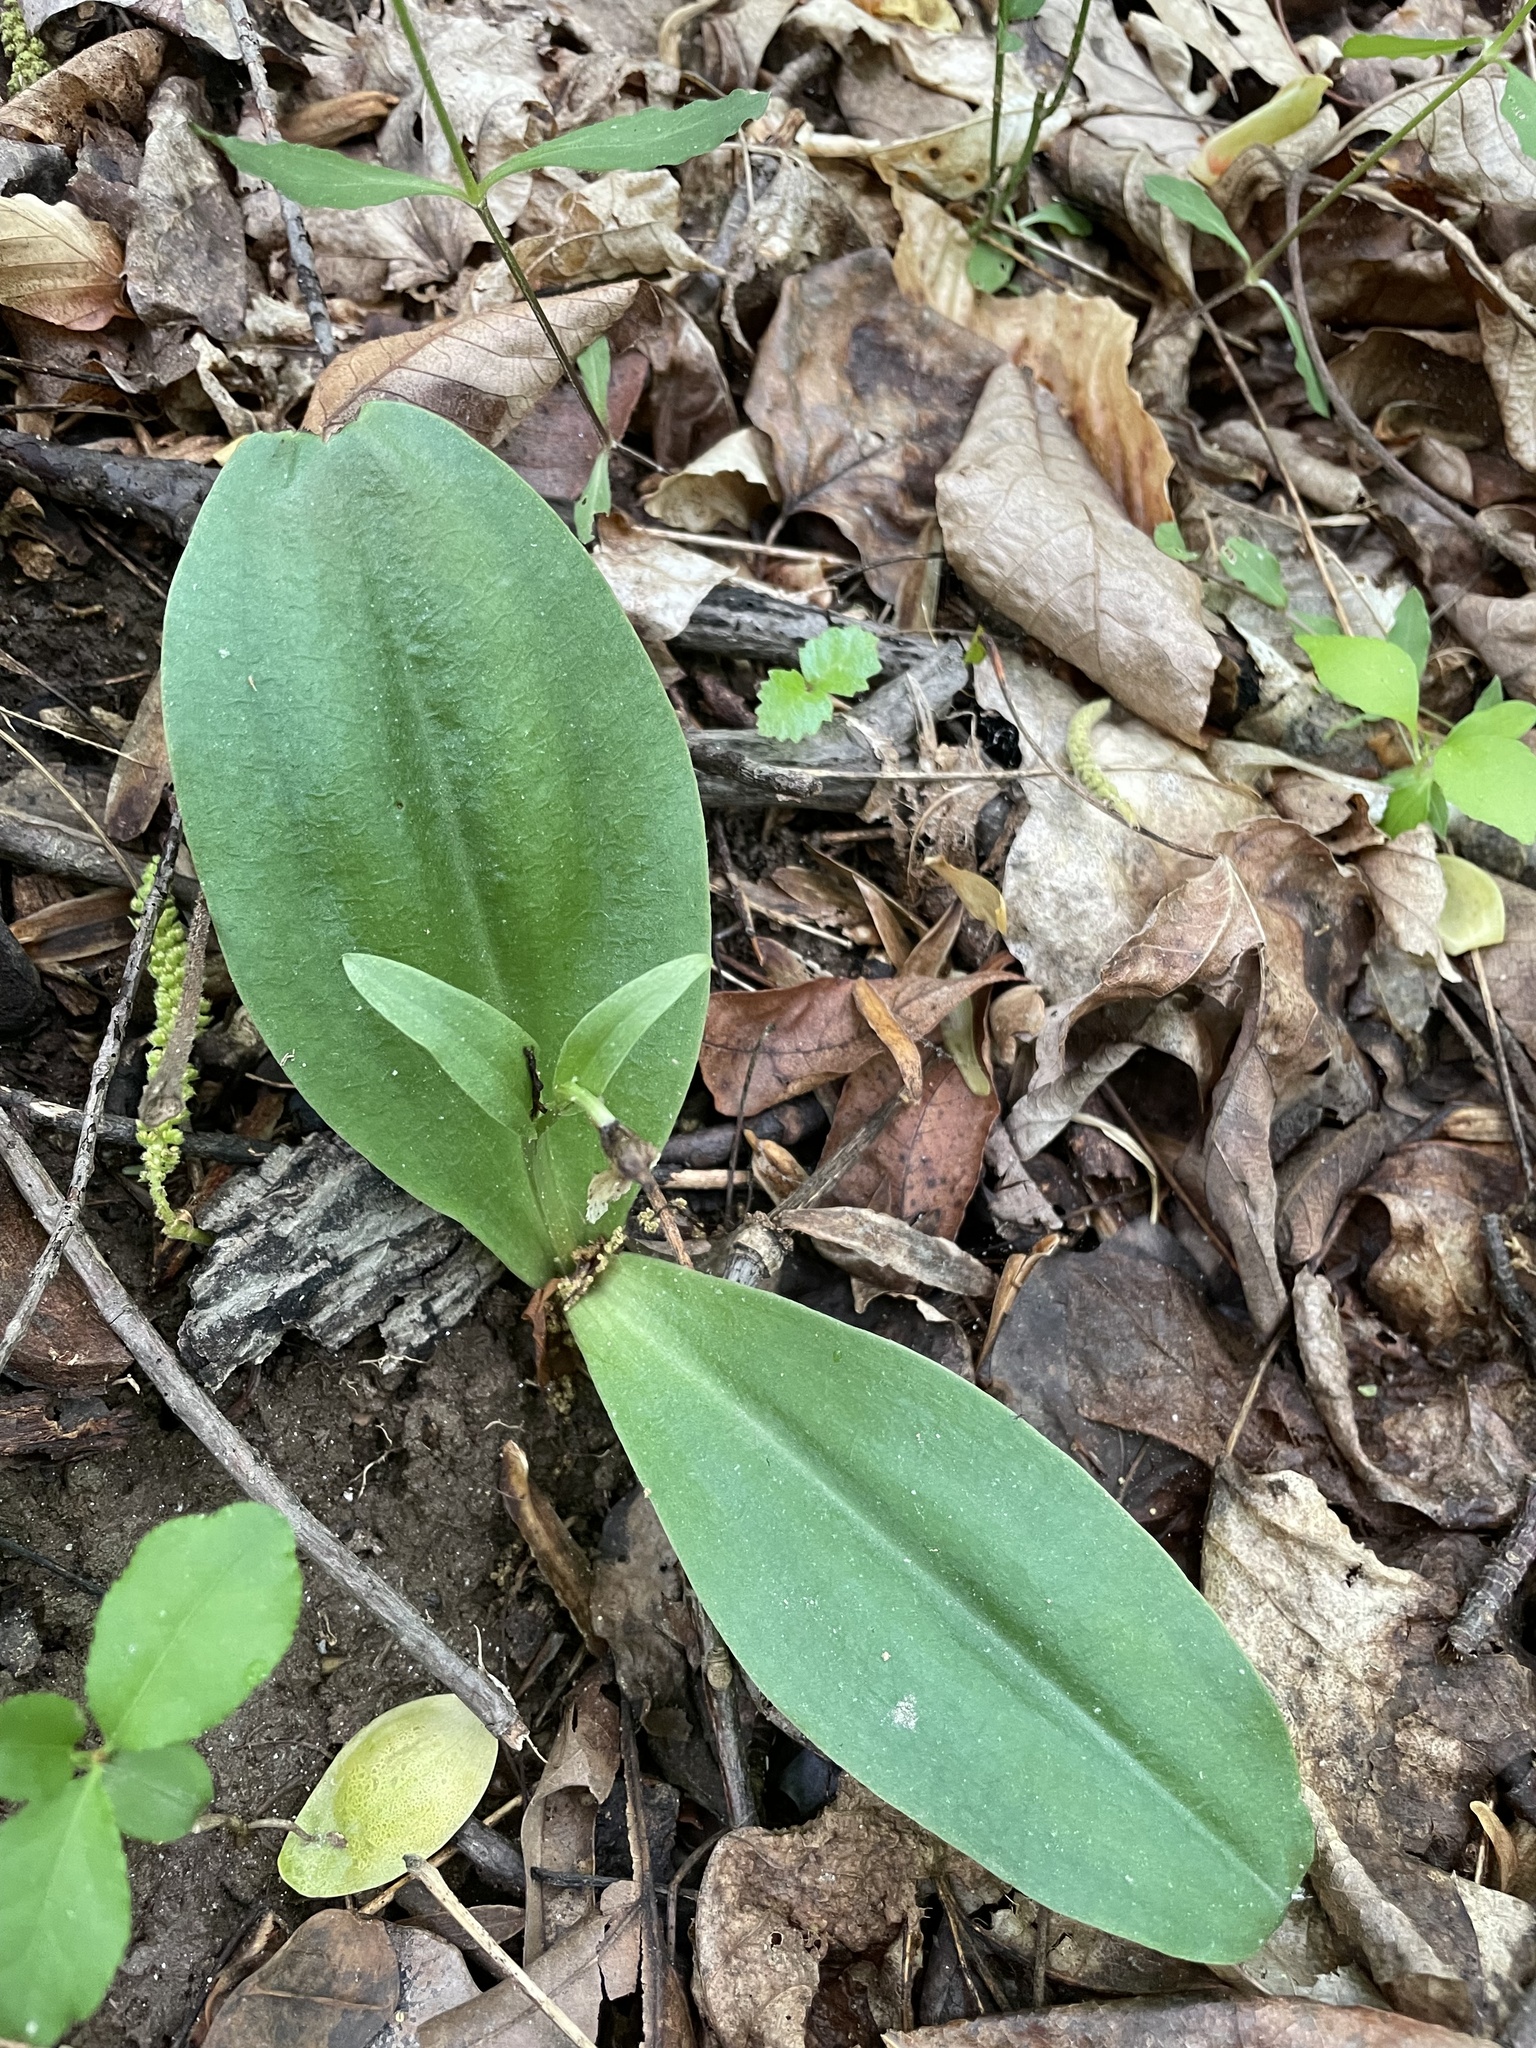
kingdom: Plantae
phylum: Tracheophyta
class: Liliopsida
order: Asparagales
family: Orchidaceae
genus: Galearis
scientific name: Galearis spectabilis
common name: Purple-hooded orchis
